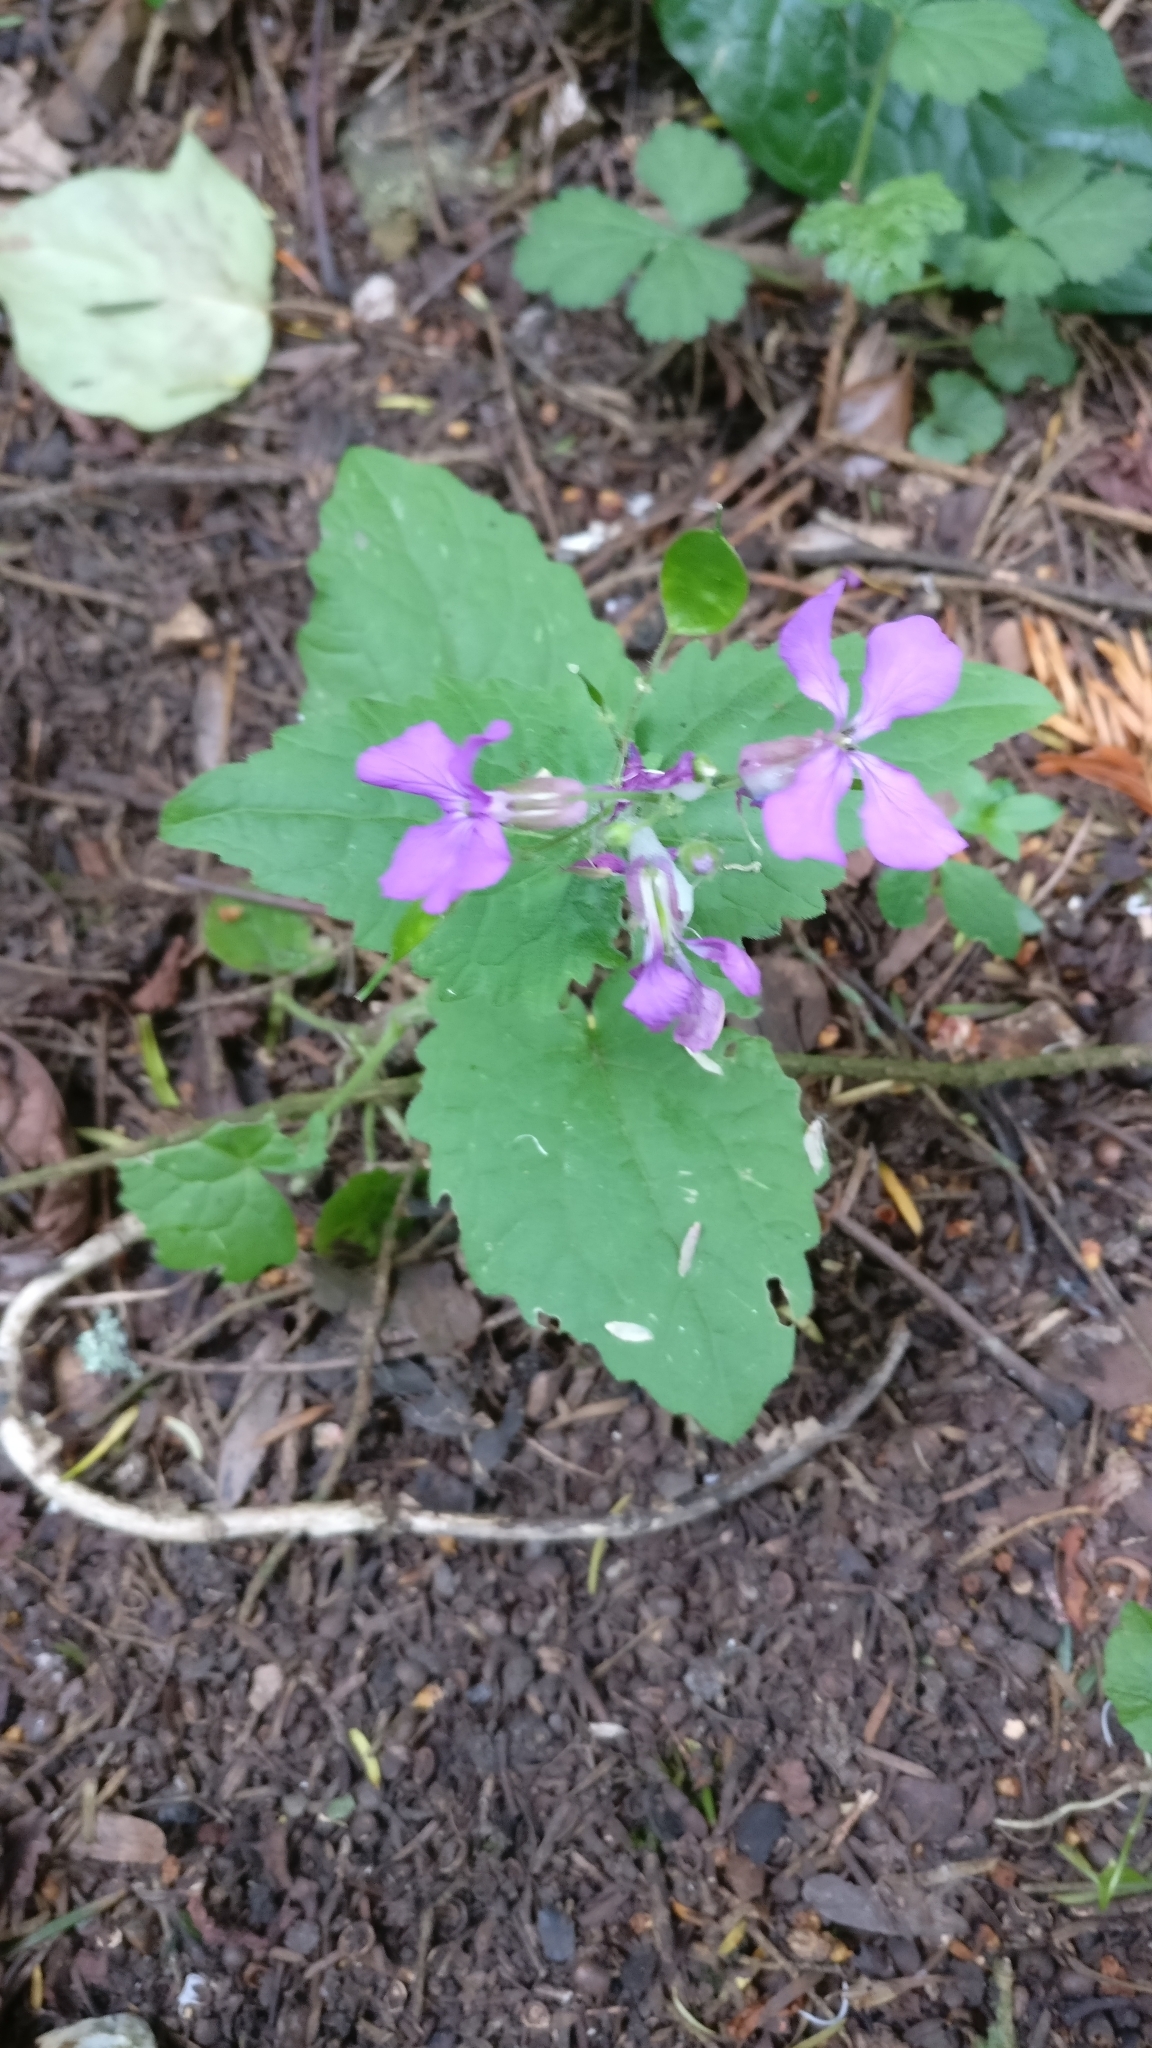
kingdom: Plantae
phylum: Tracheophyta
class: Magnoliopsida
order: Brassicales
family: Brassicaceae
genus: Lunaria
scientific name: Lunaria annua
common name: Honesty
